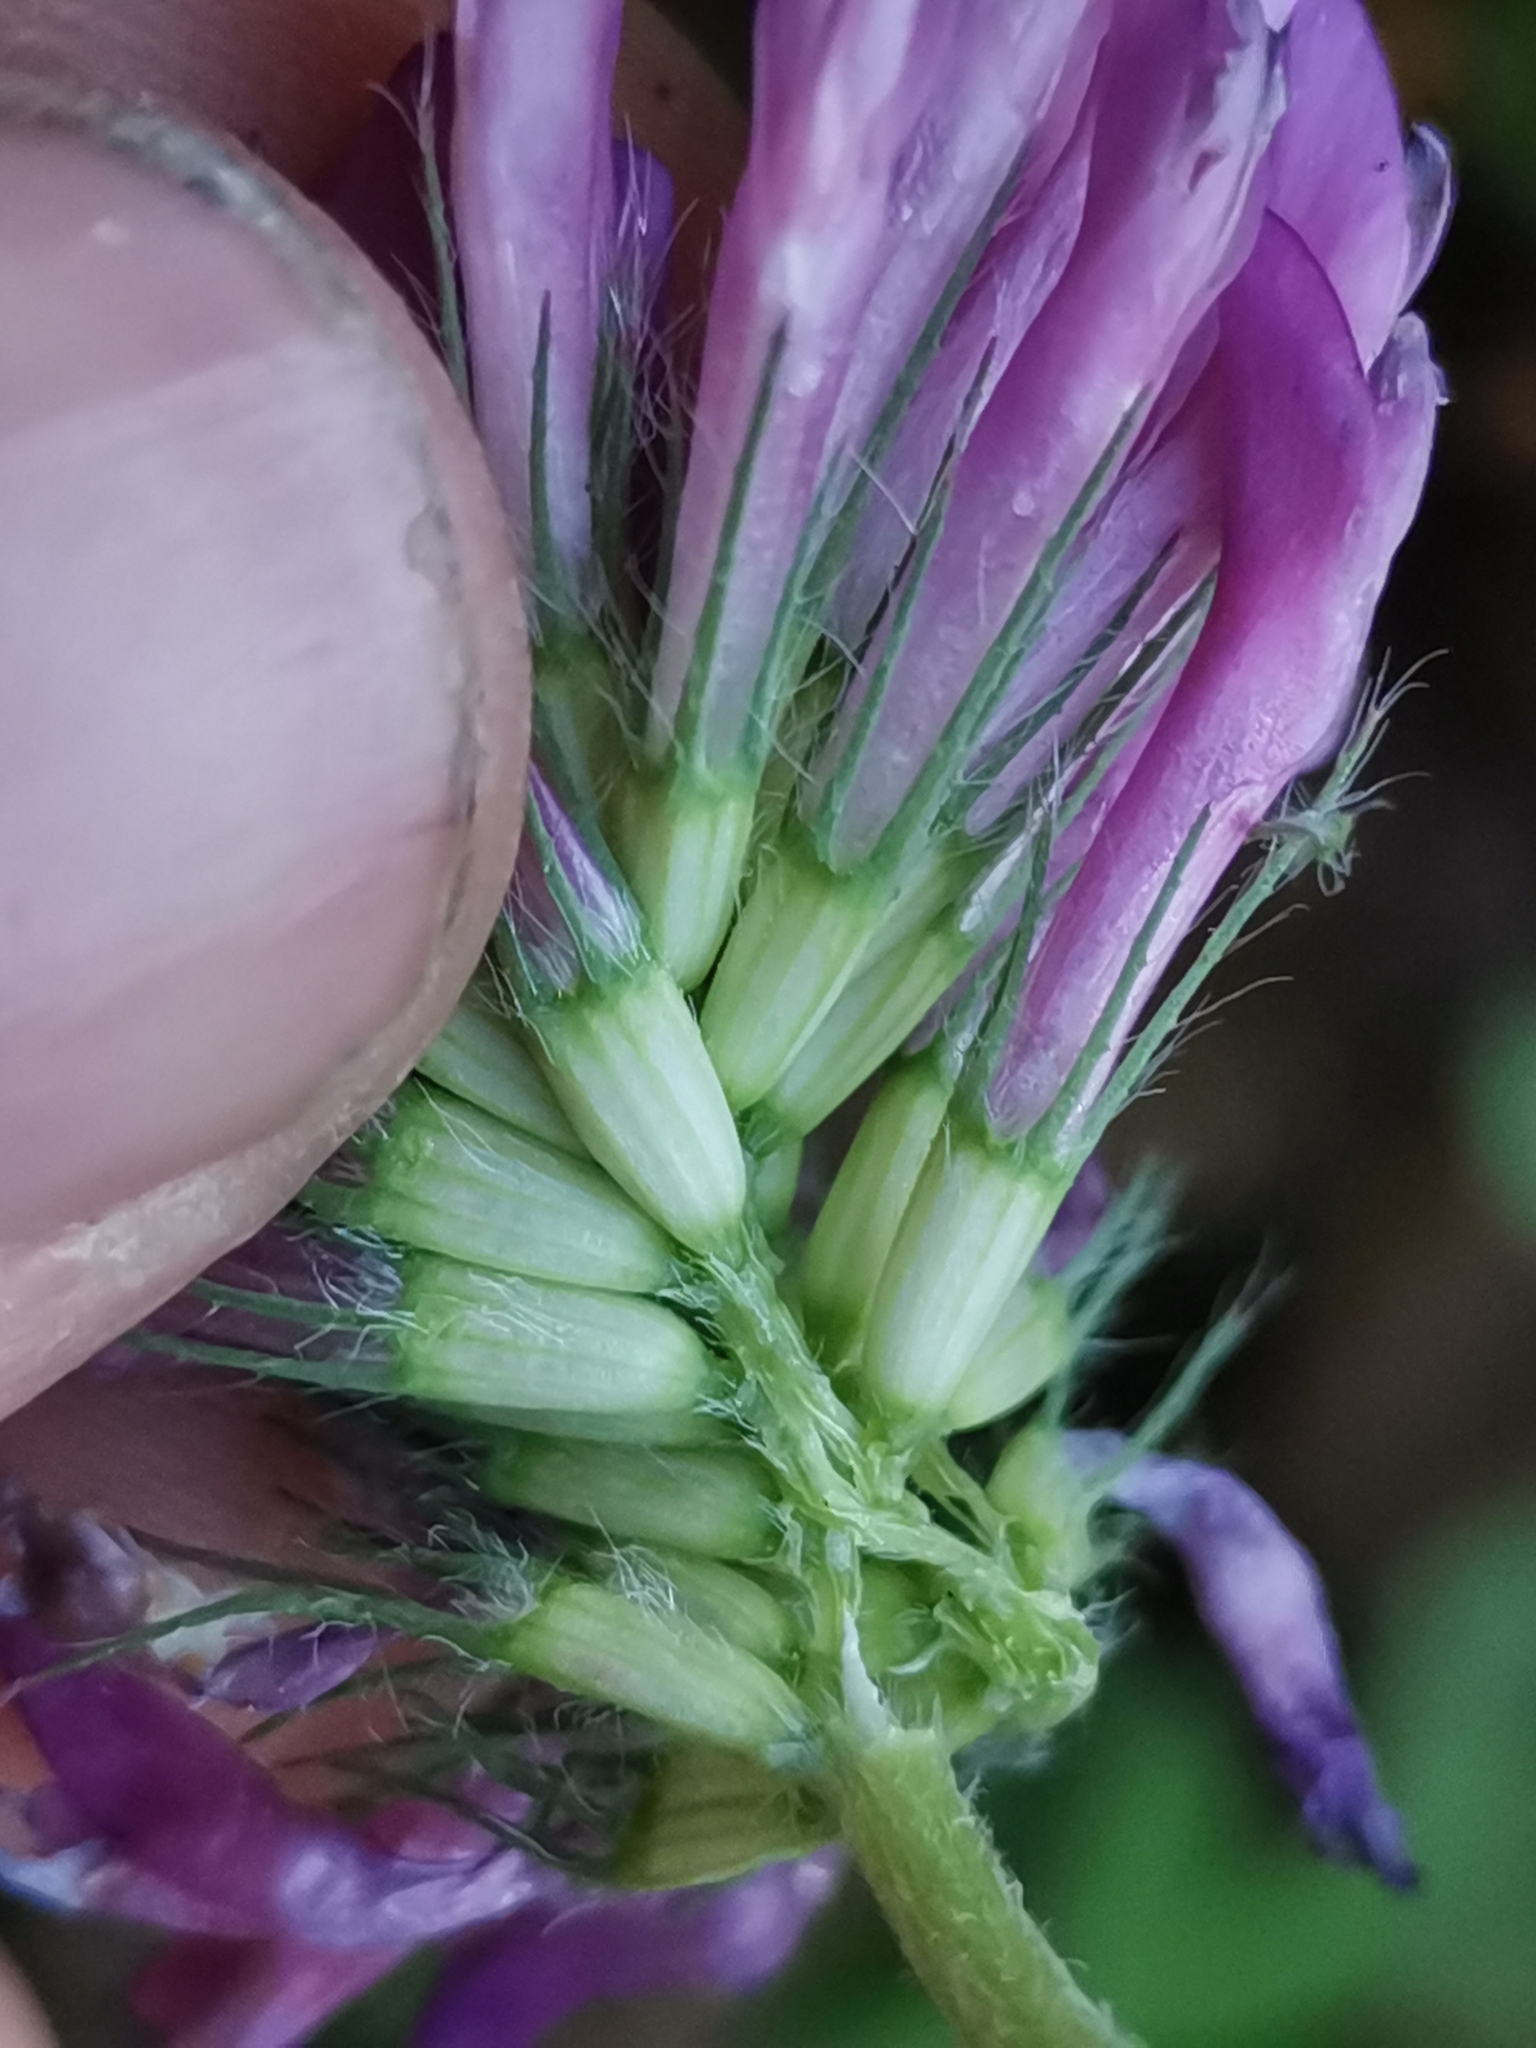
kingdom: Plantae
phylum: Tracheophyta
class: Magnoliopsida
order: Fabales
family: Fabaceae
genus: Trifolium
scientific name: Trifolium medium
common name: Zigzag clover
